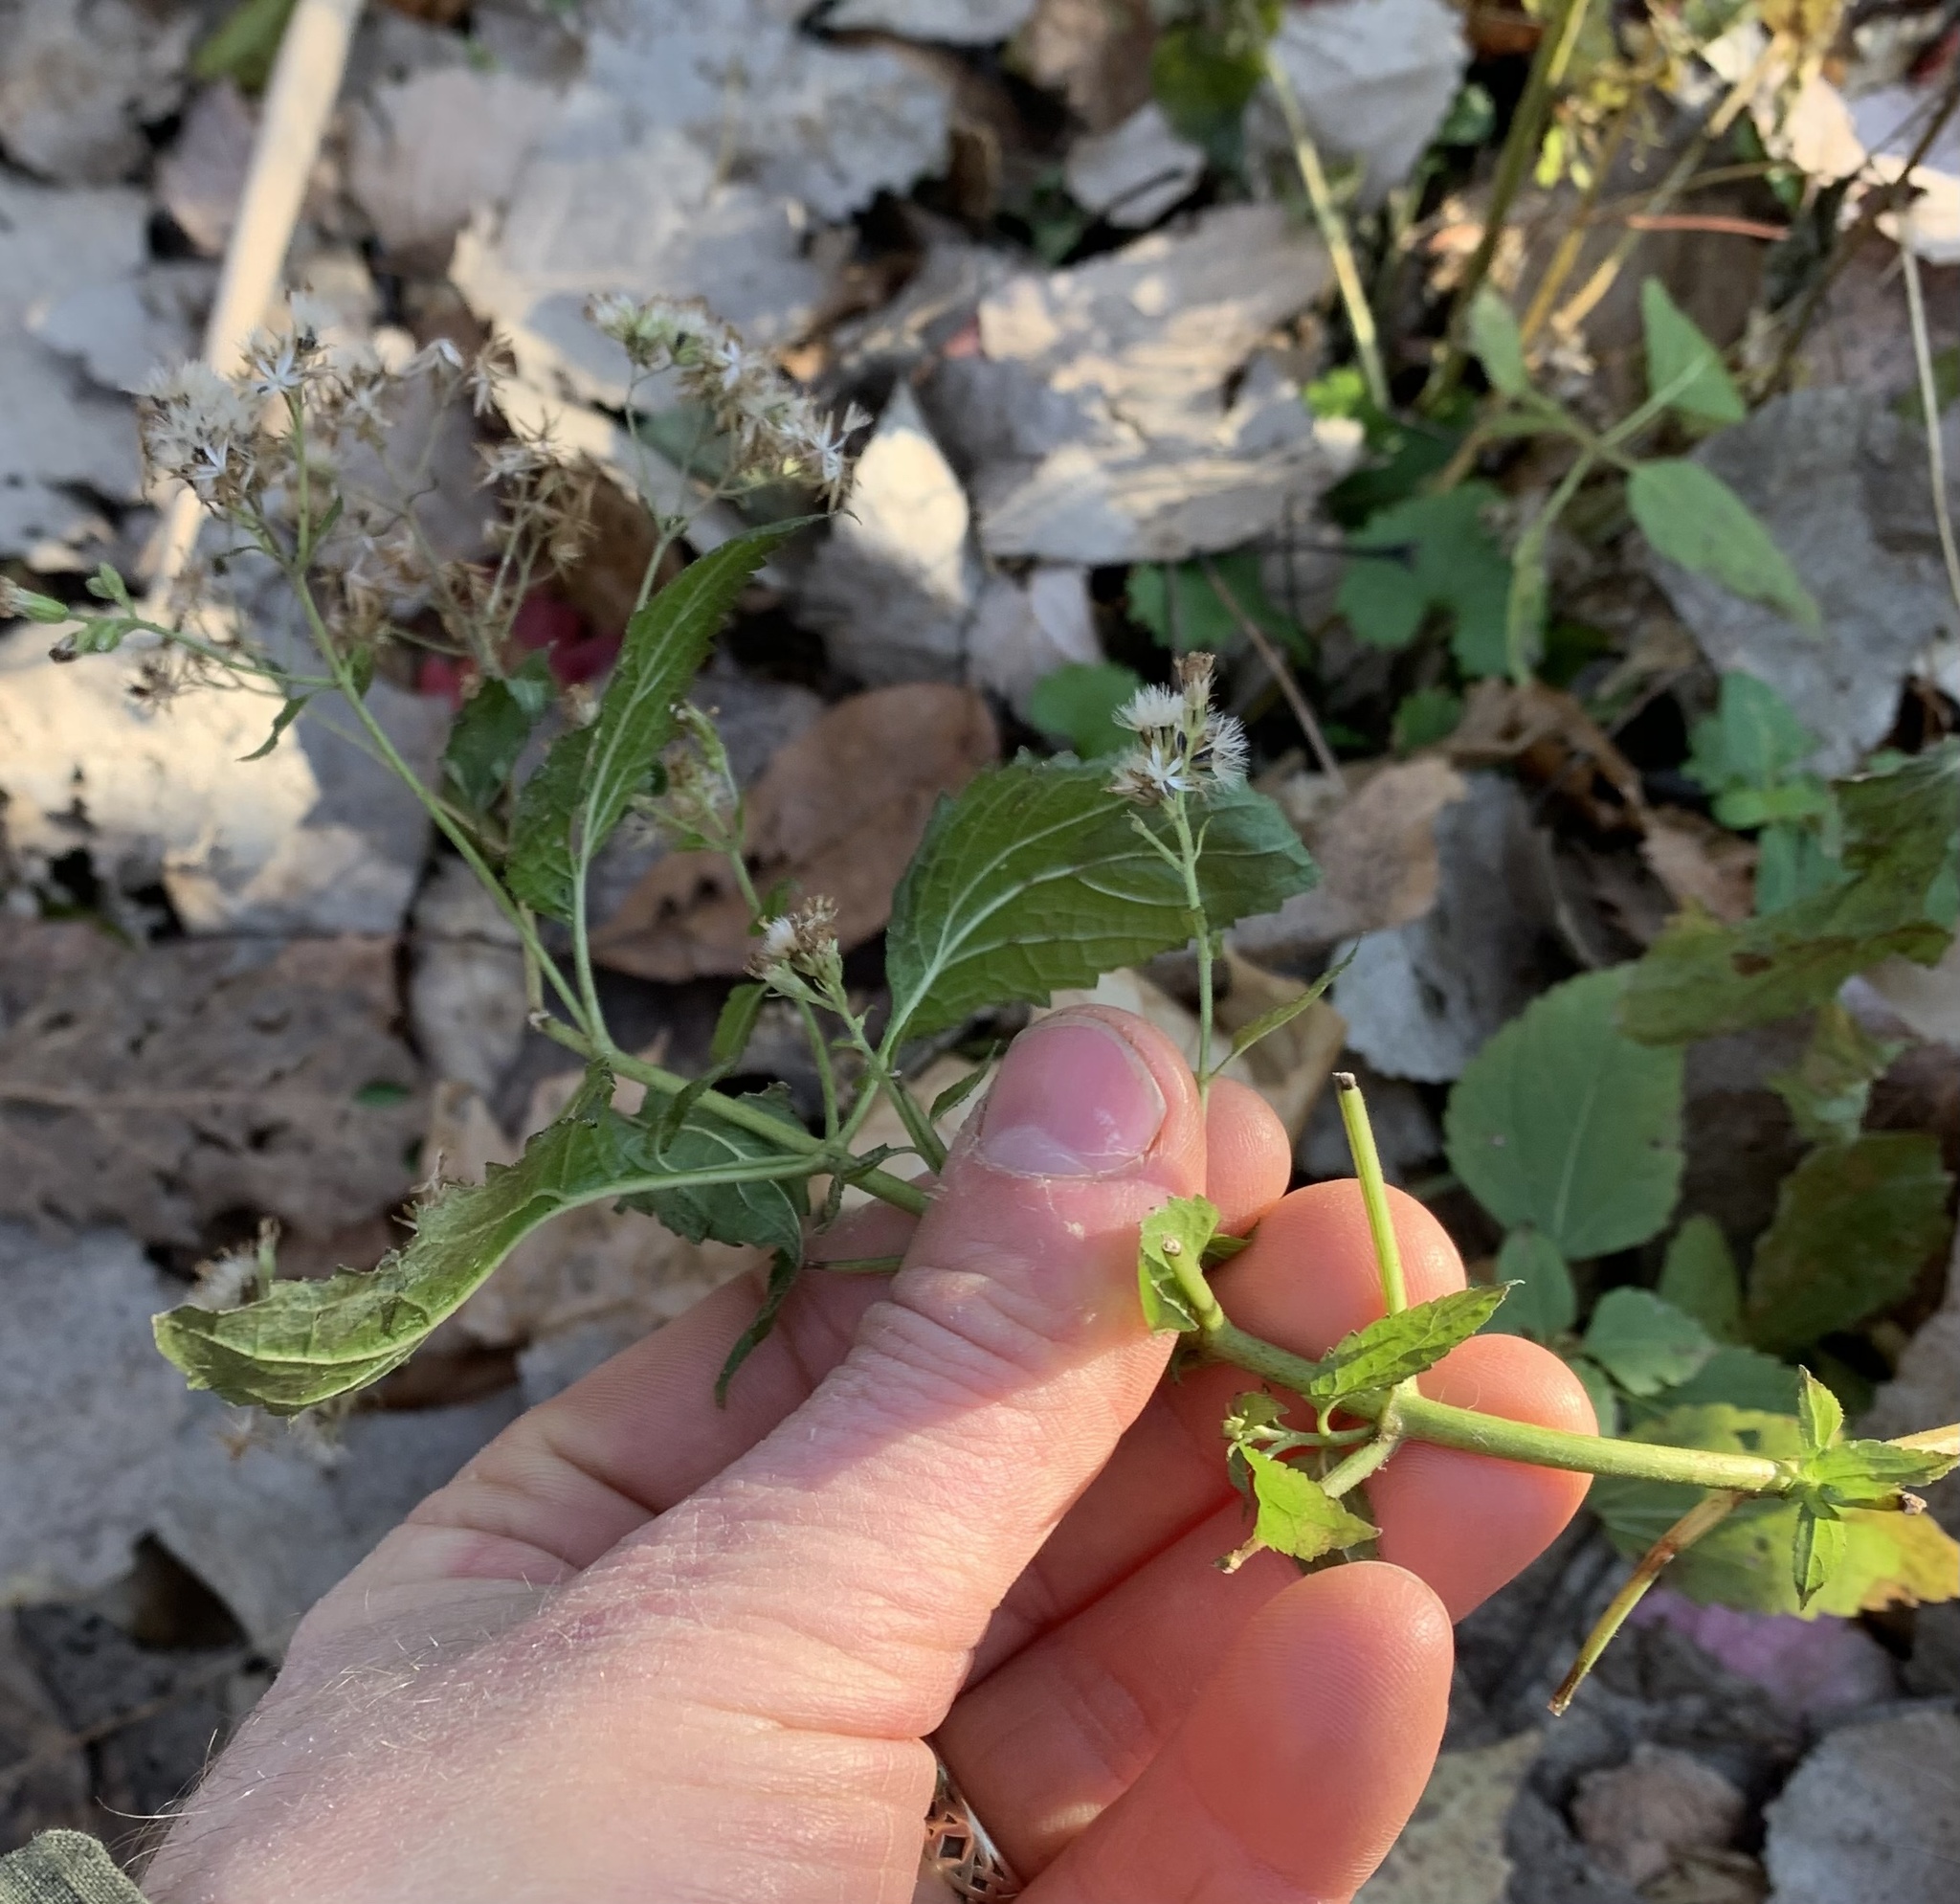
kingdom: Plantae
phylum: Tracheophyta
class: Magnoliopsida
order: Asterales
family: Asteraceae
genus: Ageratina
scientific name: Ageratina altissima
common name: White snakeroot
